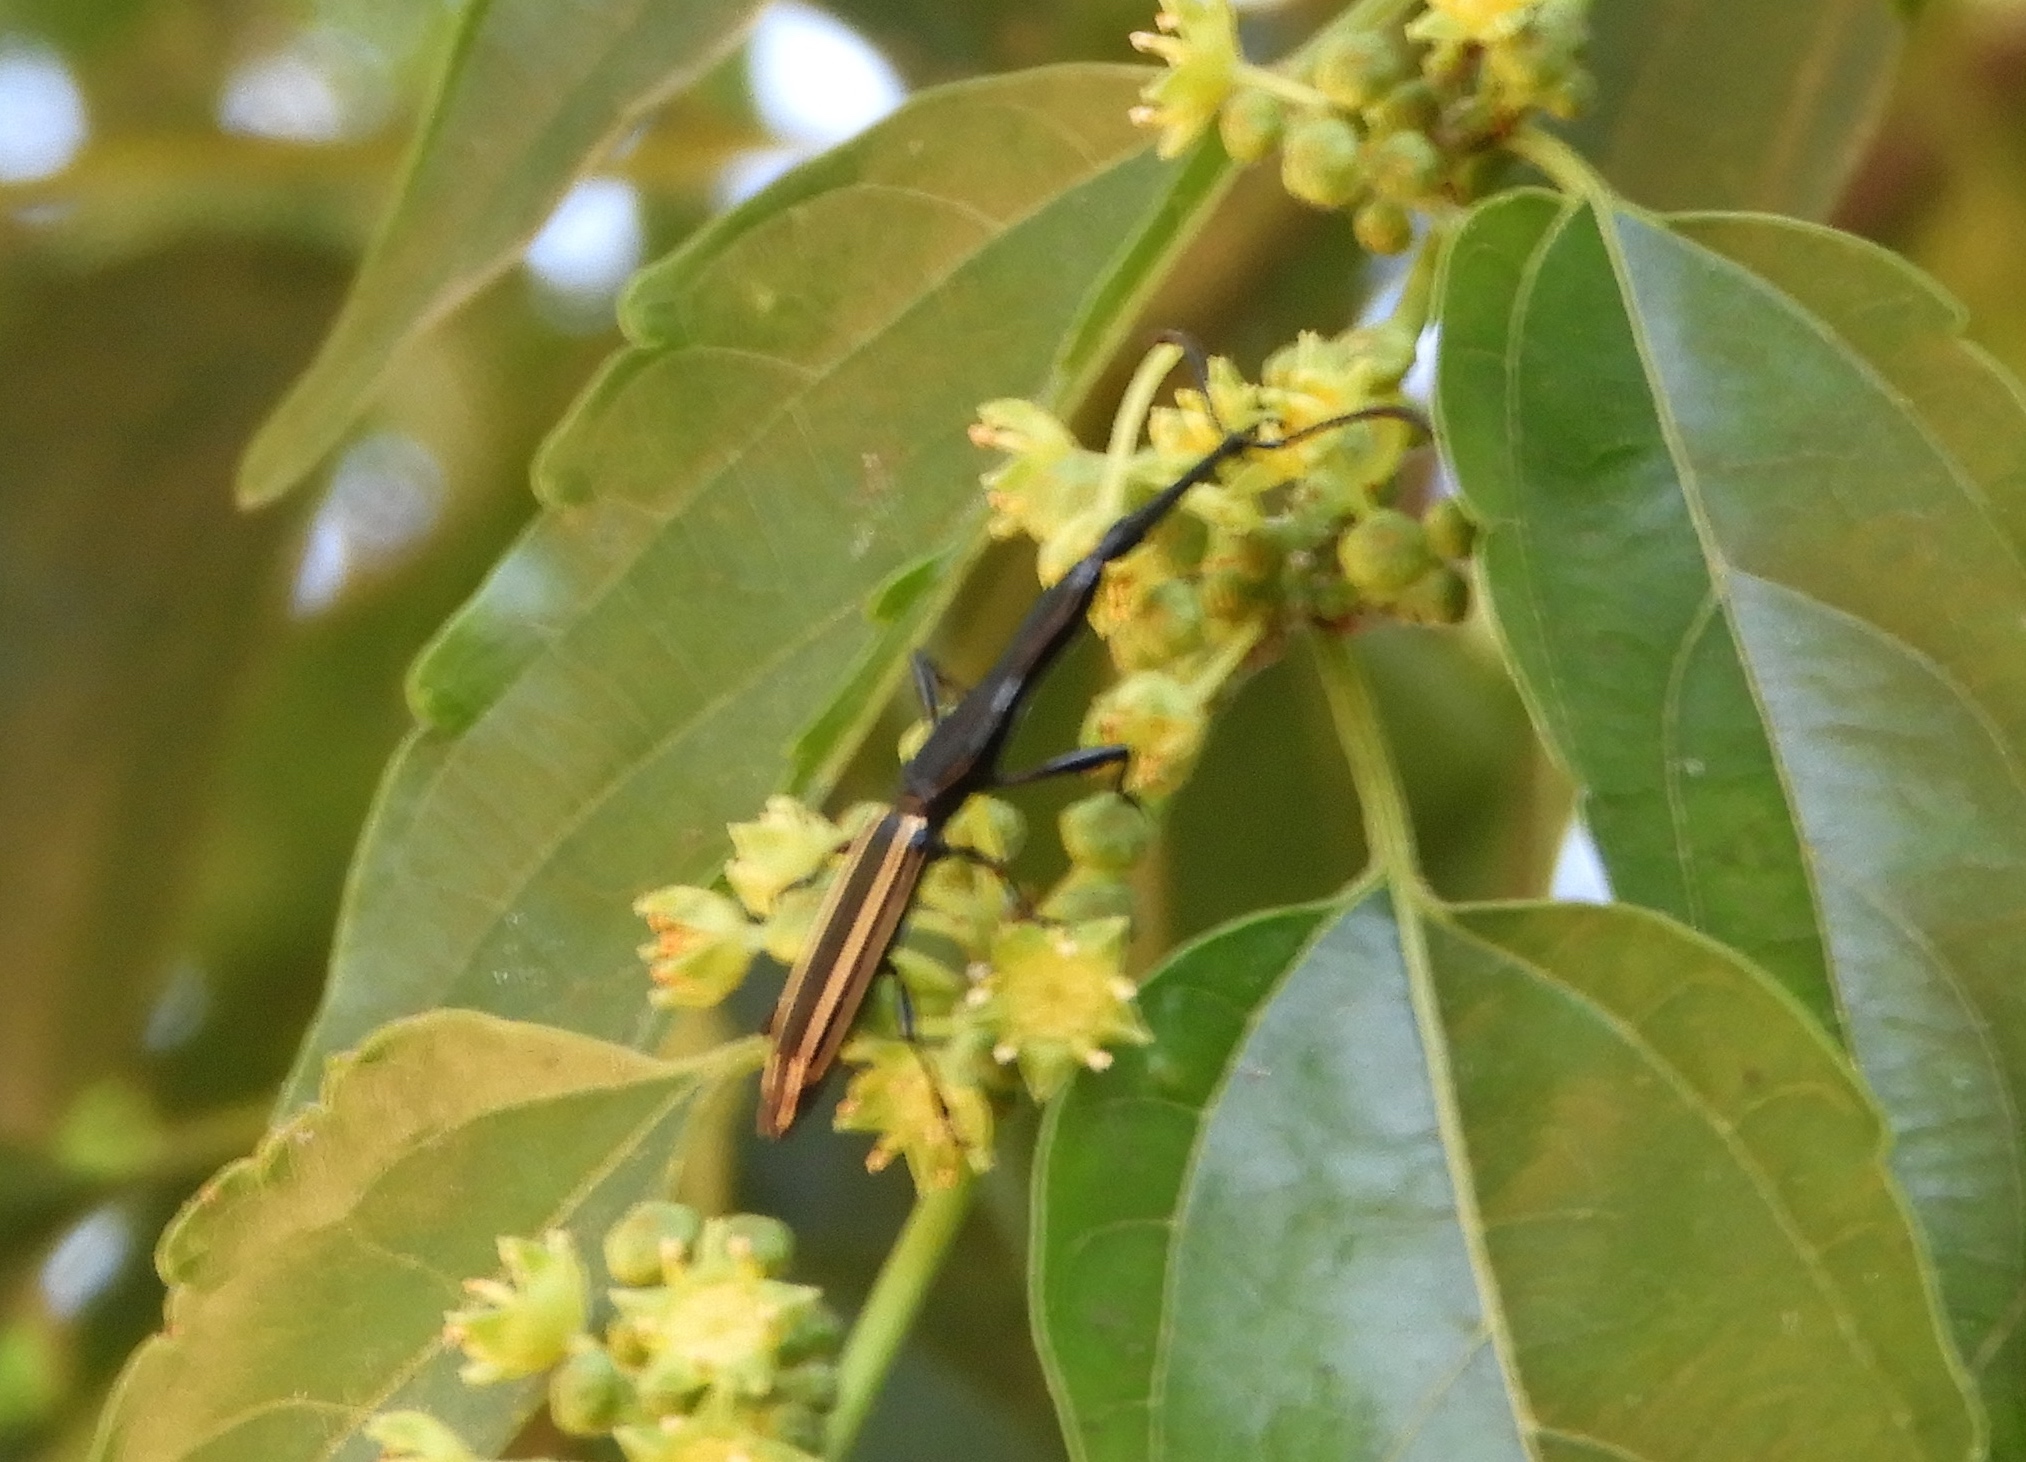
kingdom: Animalia
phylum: Arthropoda
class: Insecta
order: Coleoptera
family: Brentidae
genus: Brentus
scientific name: Brentus anchorago
